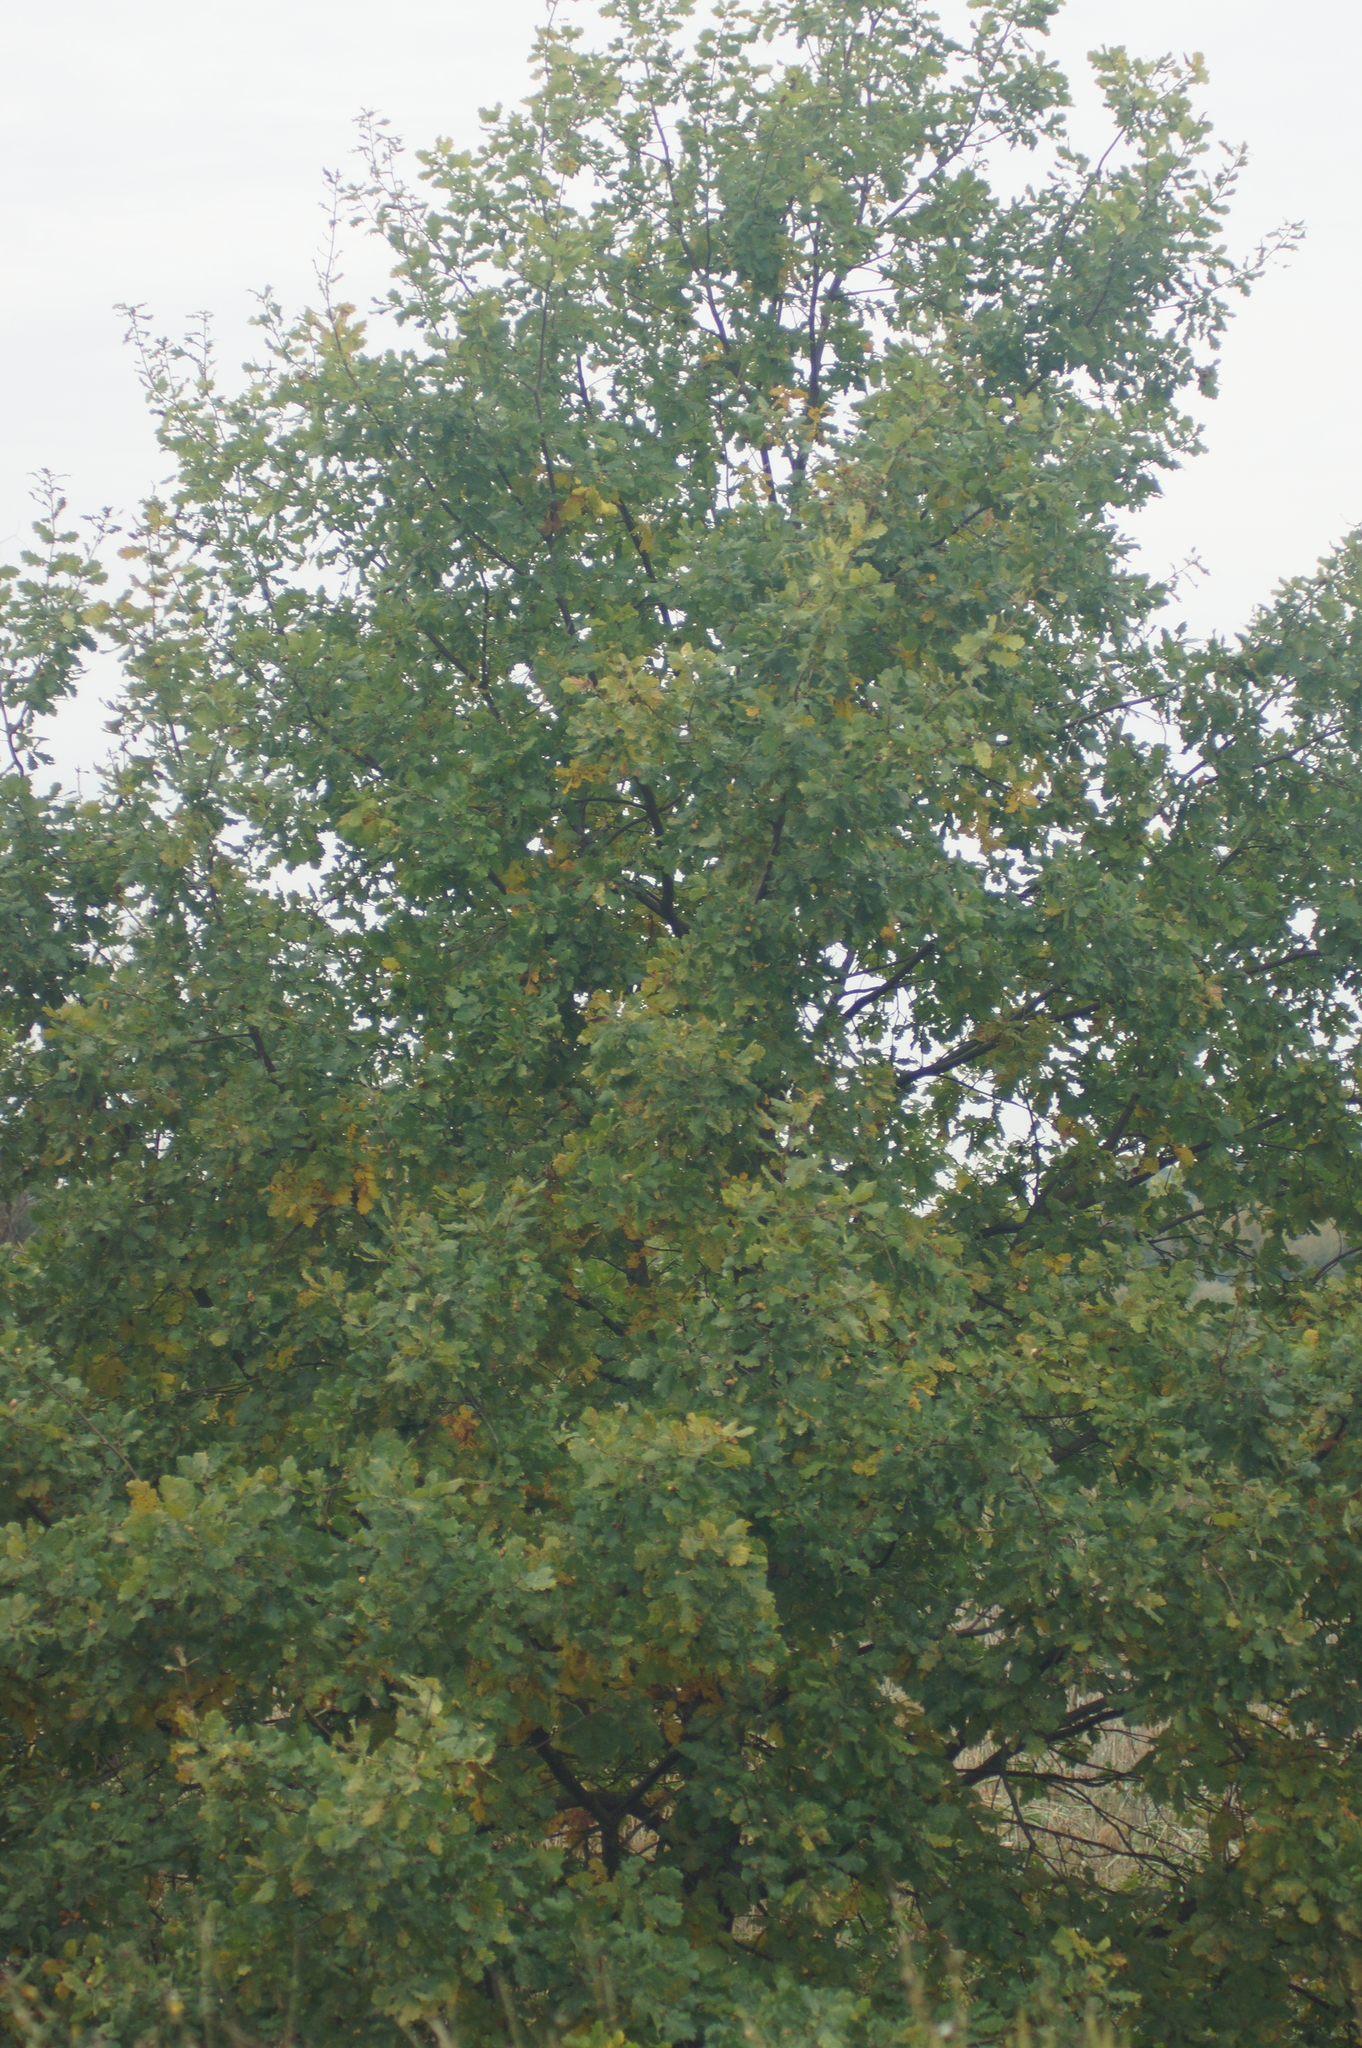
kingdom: Plantae
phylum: Tracheophyta
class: Magnoliopsida
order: Fagales
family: Fagaceae
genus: Quercus
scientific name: Quercus robur
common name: Pedunculate oak
